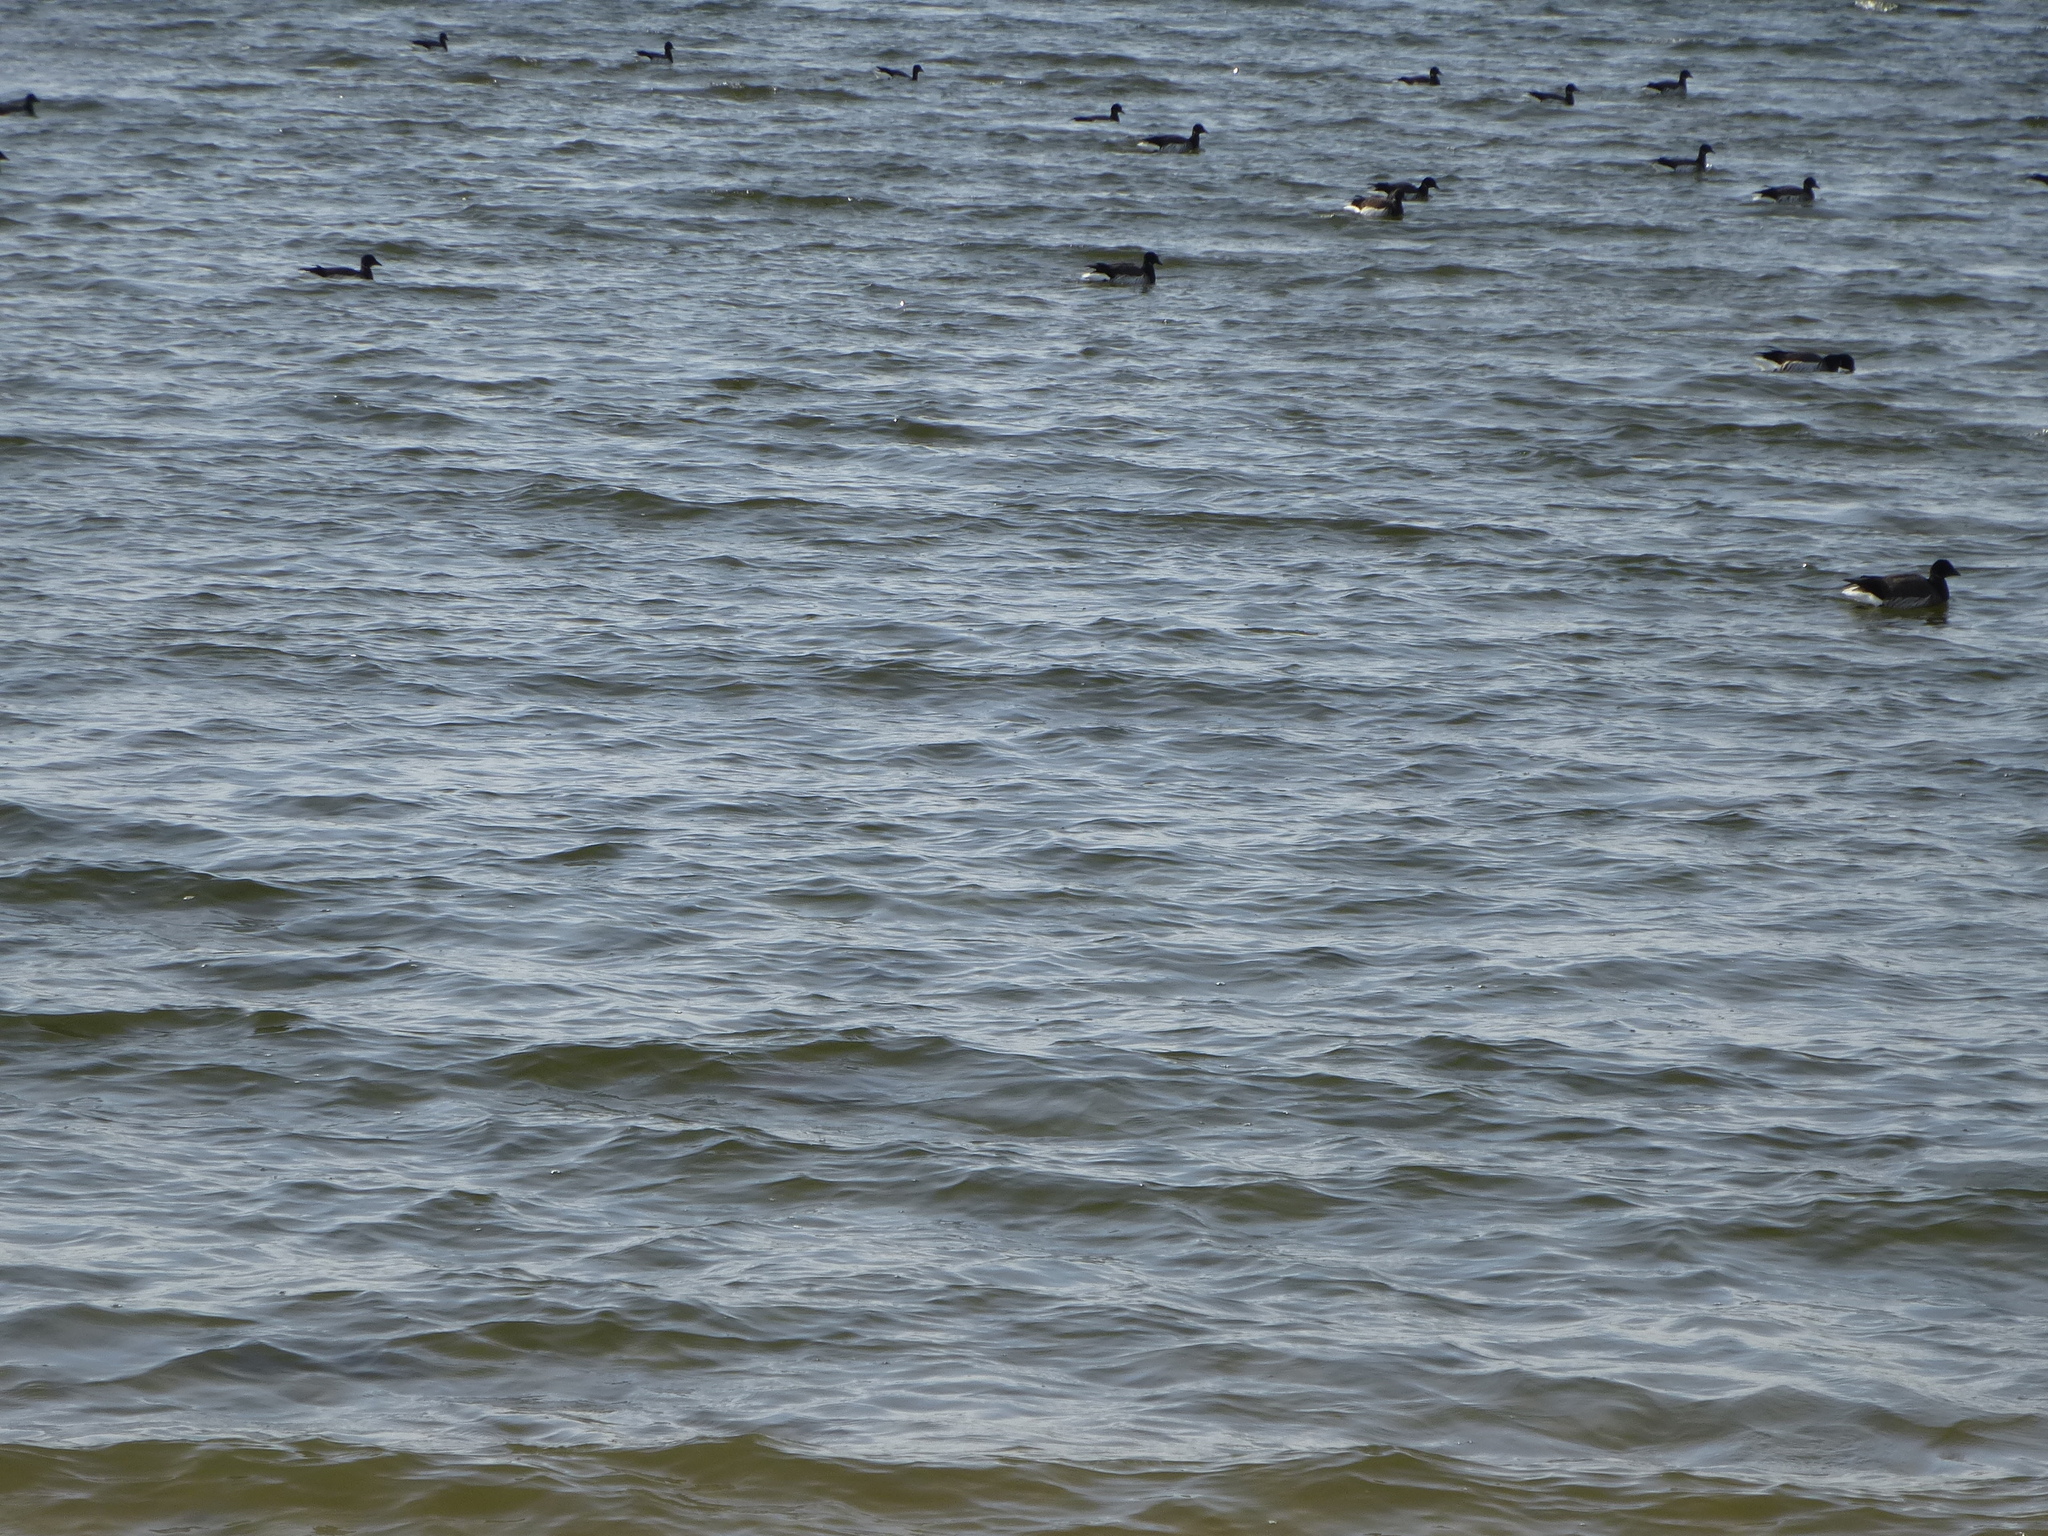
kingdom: Animalia
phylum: Chordata
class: Aves
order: Anseriformes
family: Anatidae
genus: Branta
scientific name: Branta bernicla
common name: Brant goose
